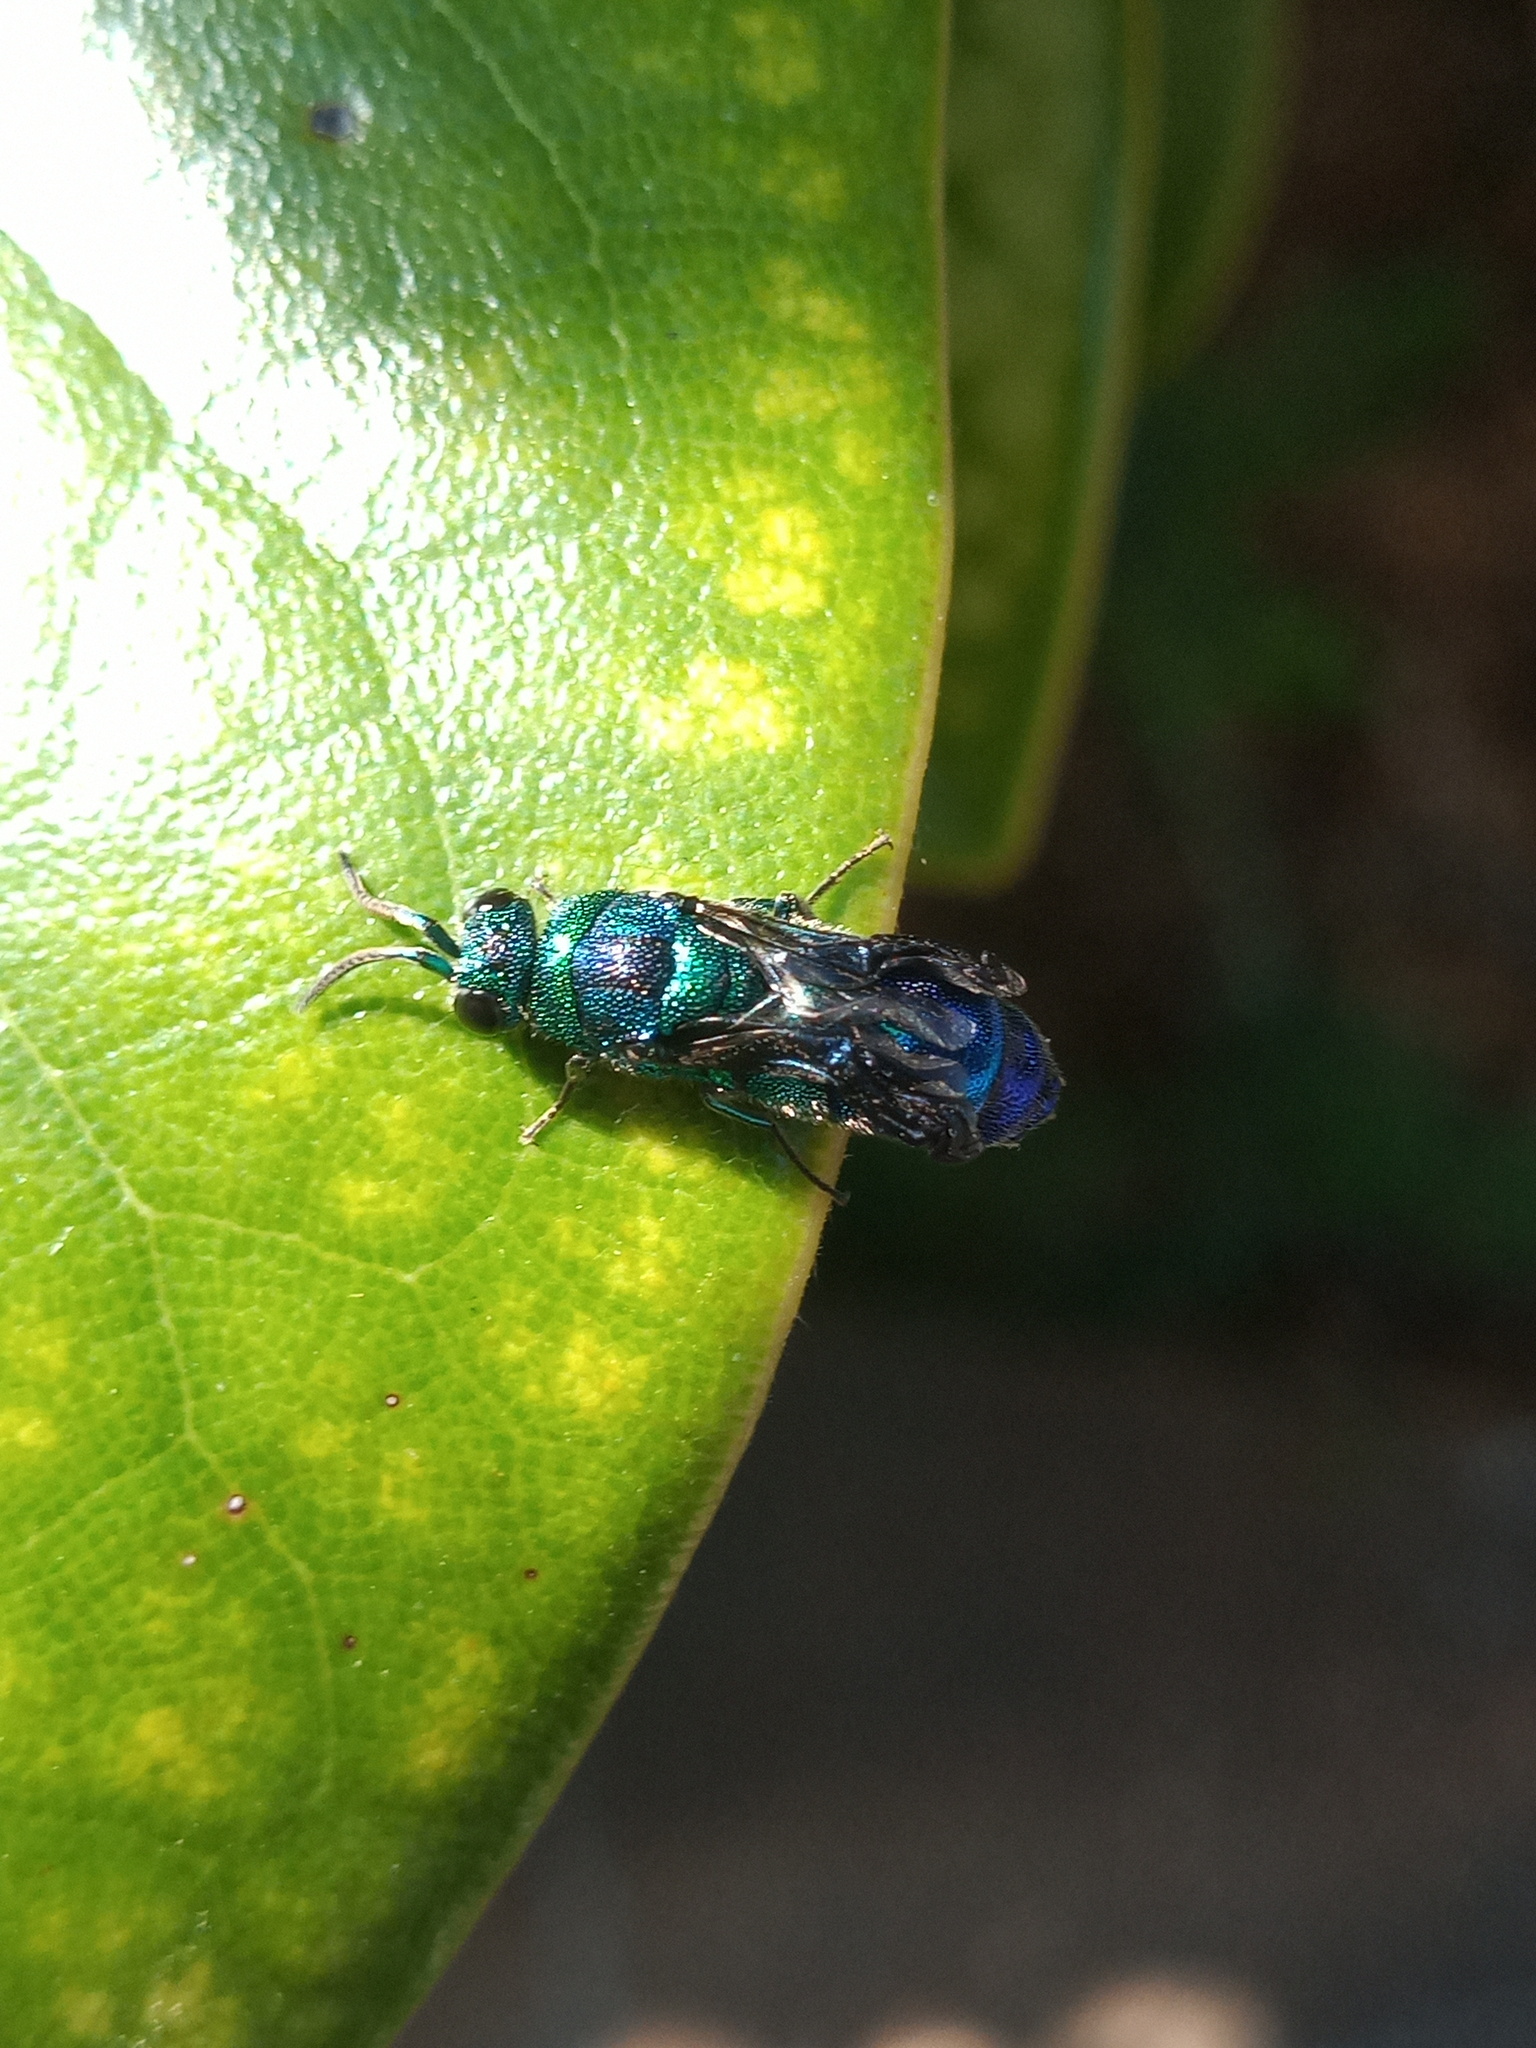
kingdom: Animalia
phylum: Arthropoda
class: Insecta
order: Hymenoptera
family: Chrysididae
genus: Chrysis
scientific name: Chrysis angolensis
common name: Cuckoo wasp
